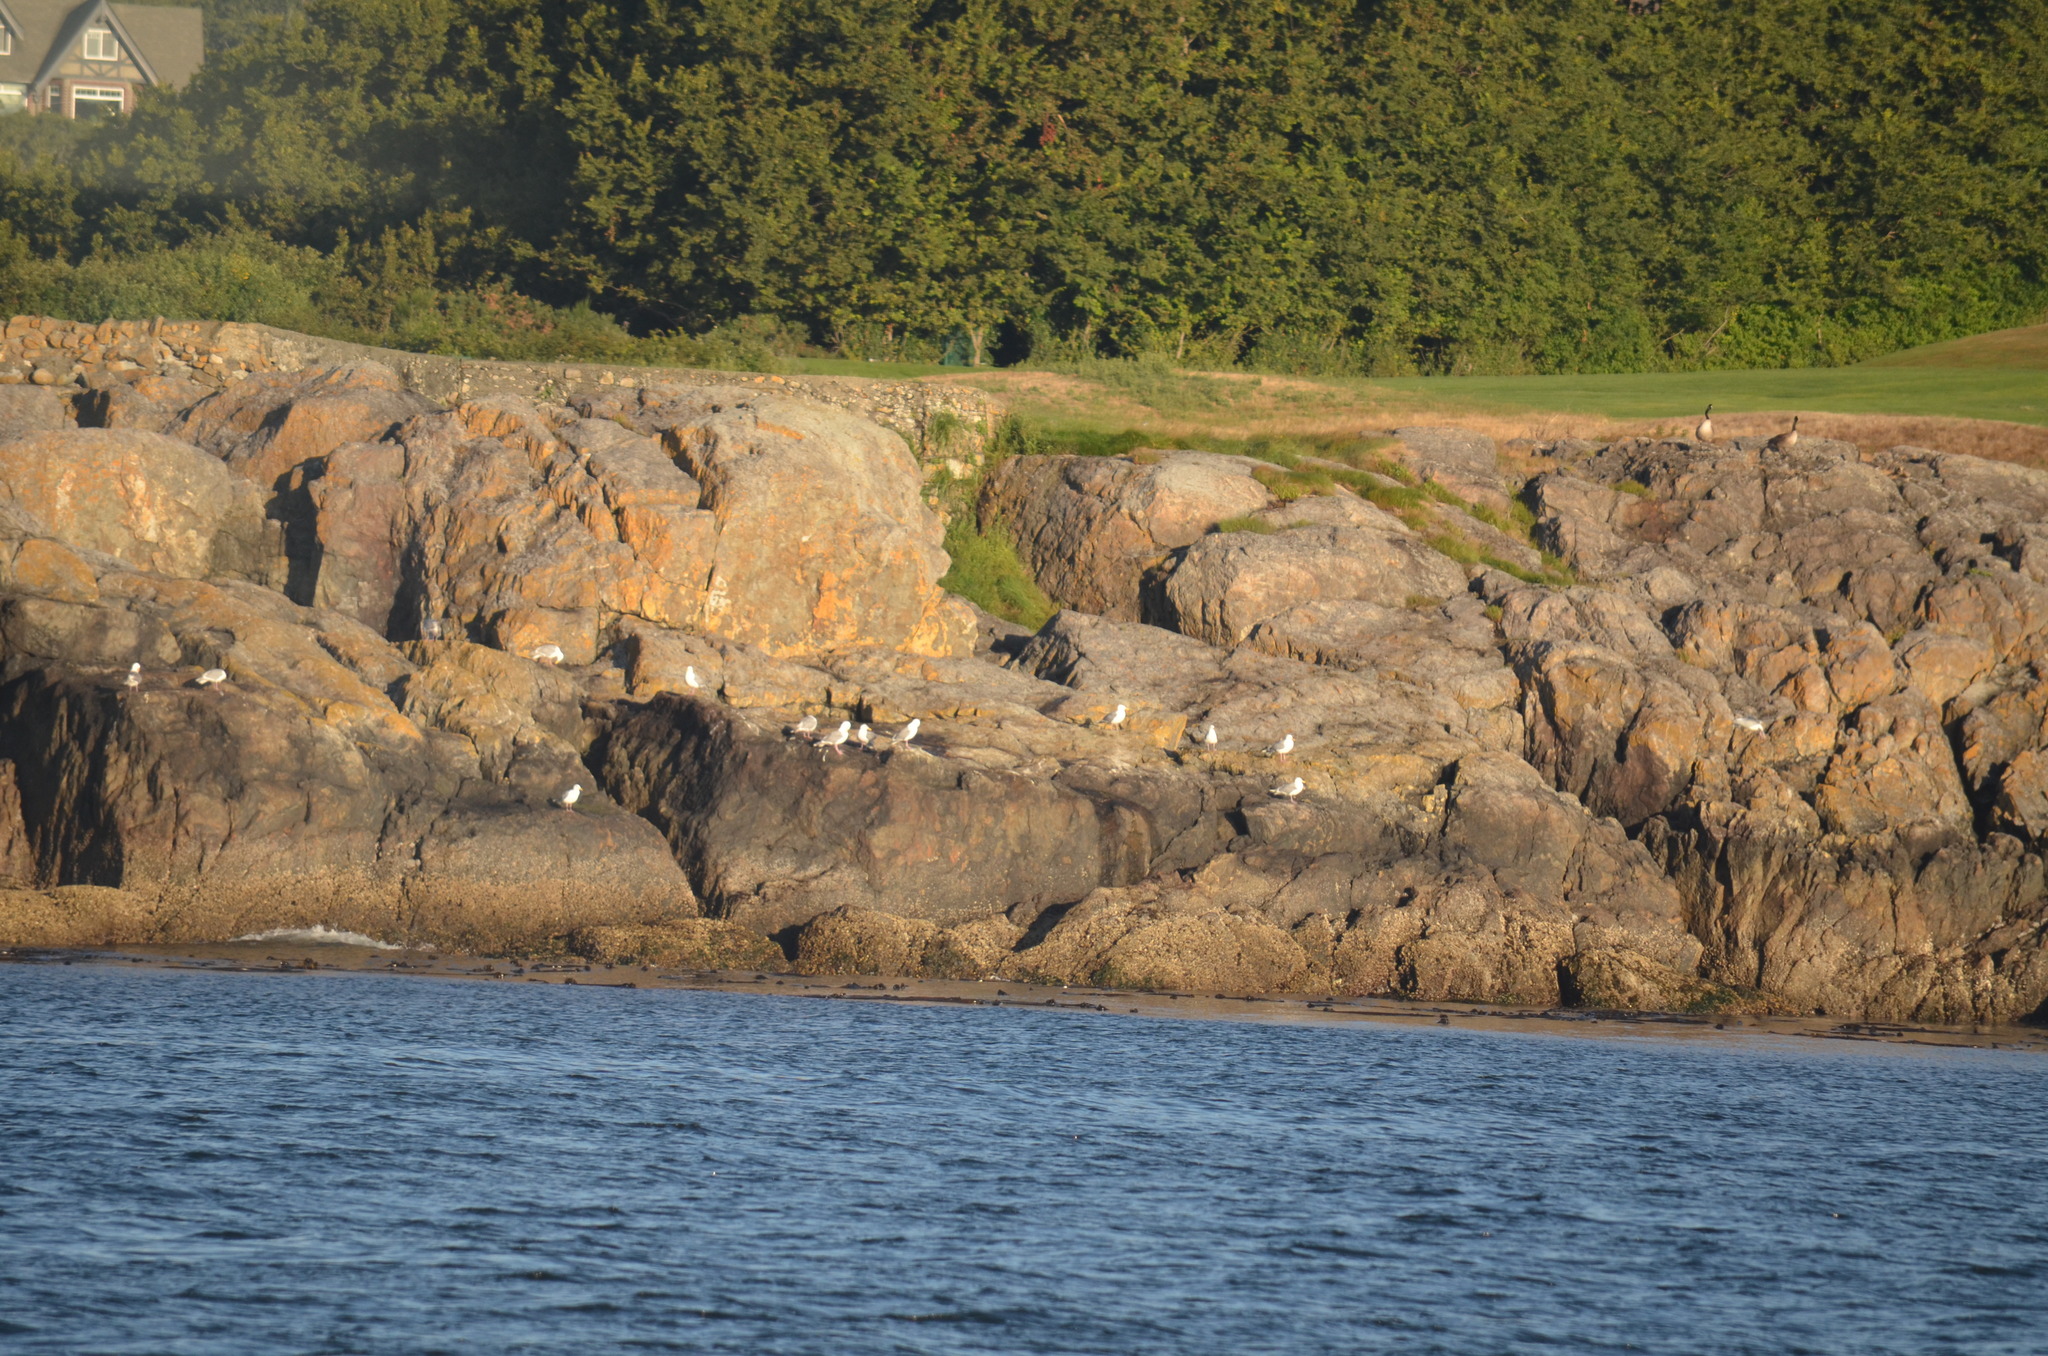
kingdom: Animalia
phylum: Chordata
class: Aves
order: Charadriiformes
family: Laridae
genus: Larus
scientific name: Larus glaucescens
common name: Glaucous-winged gull
